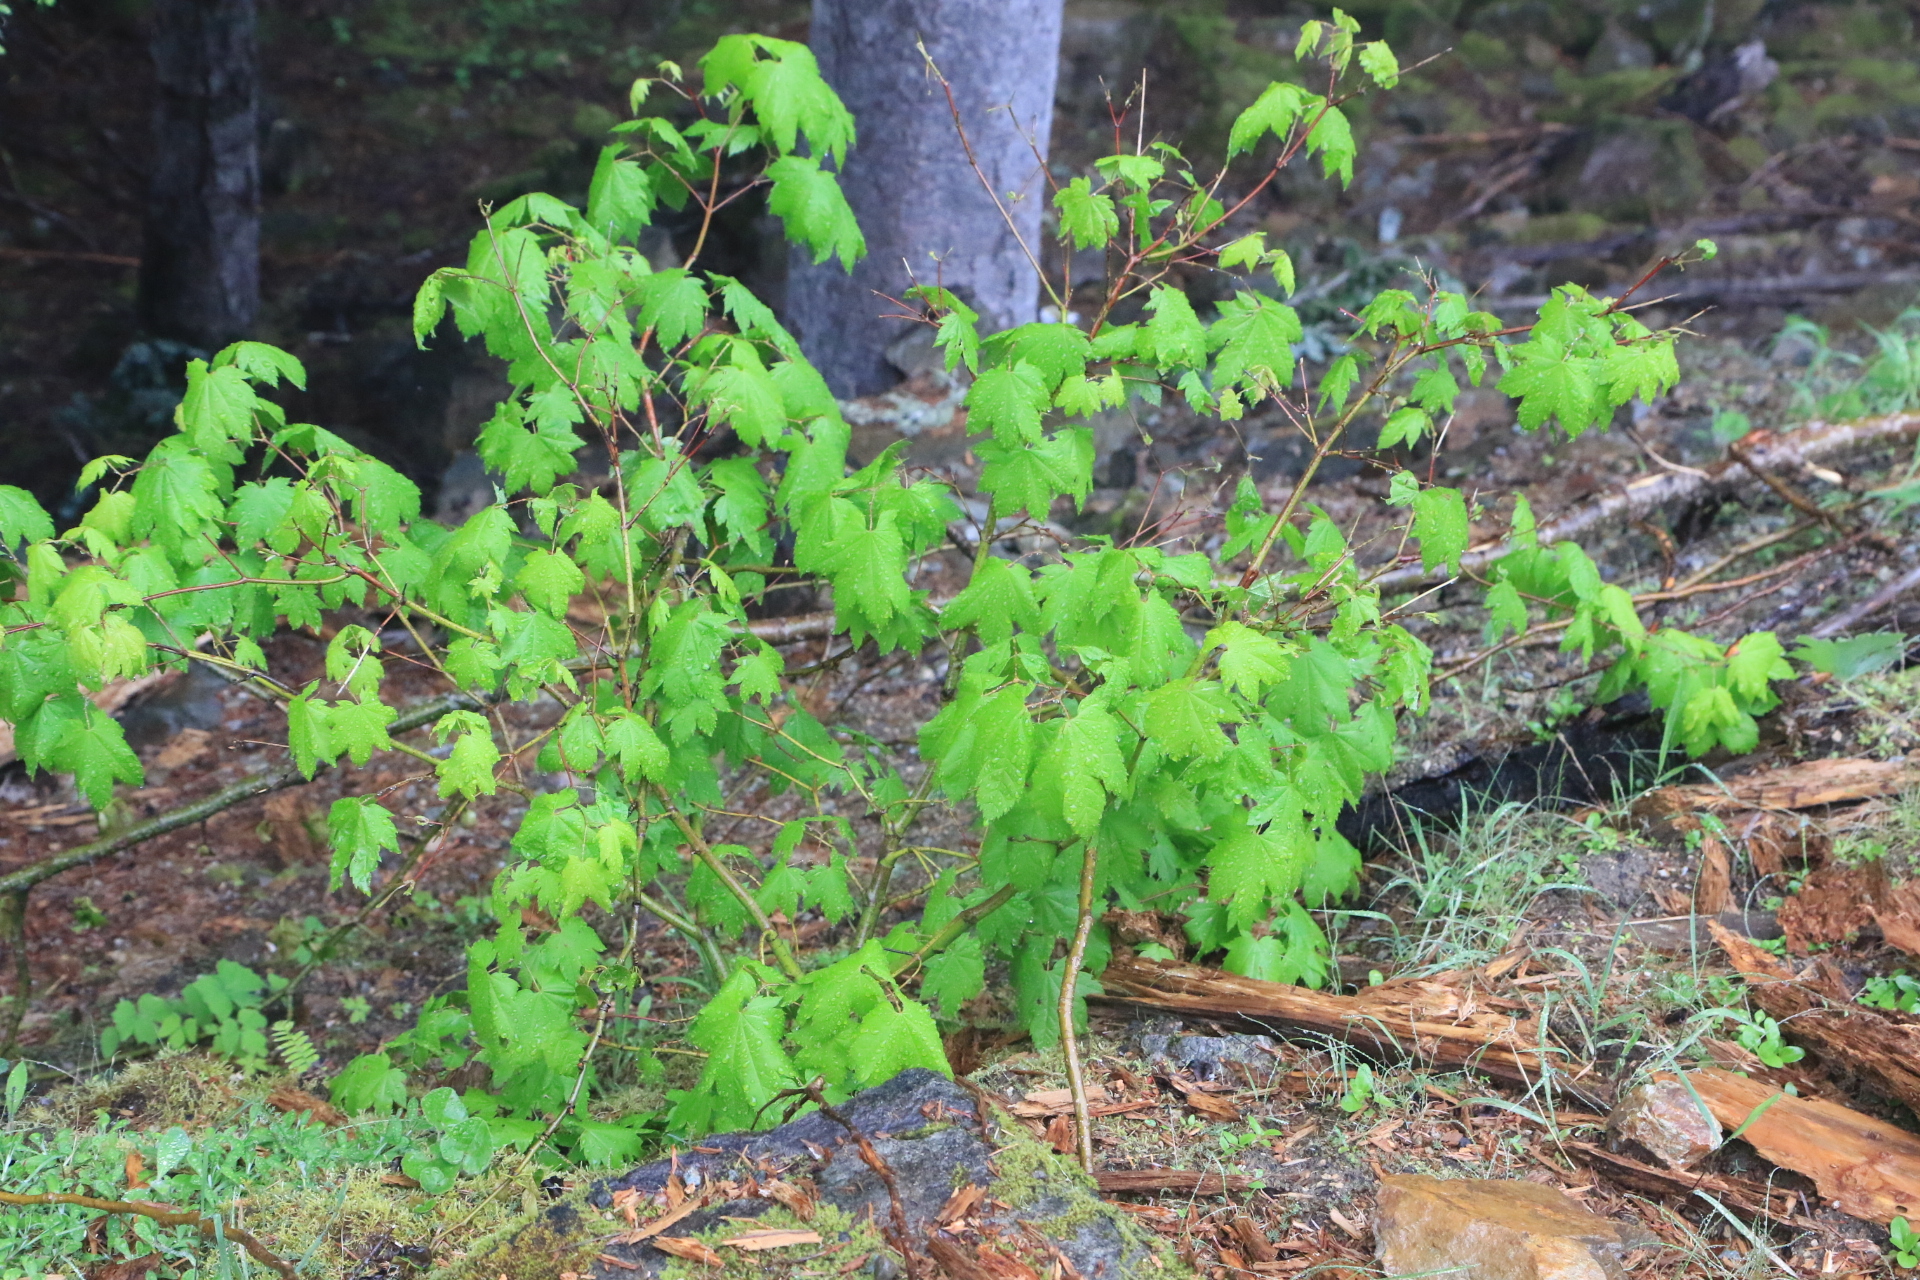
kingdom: Plantae
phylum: Tracheophyta
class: Magnoliopsida
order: Sapindales
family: Sapindaceae
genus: Acer
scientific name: Acer circinatum
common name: Vine maple
